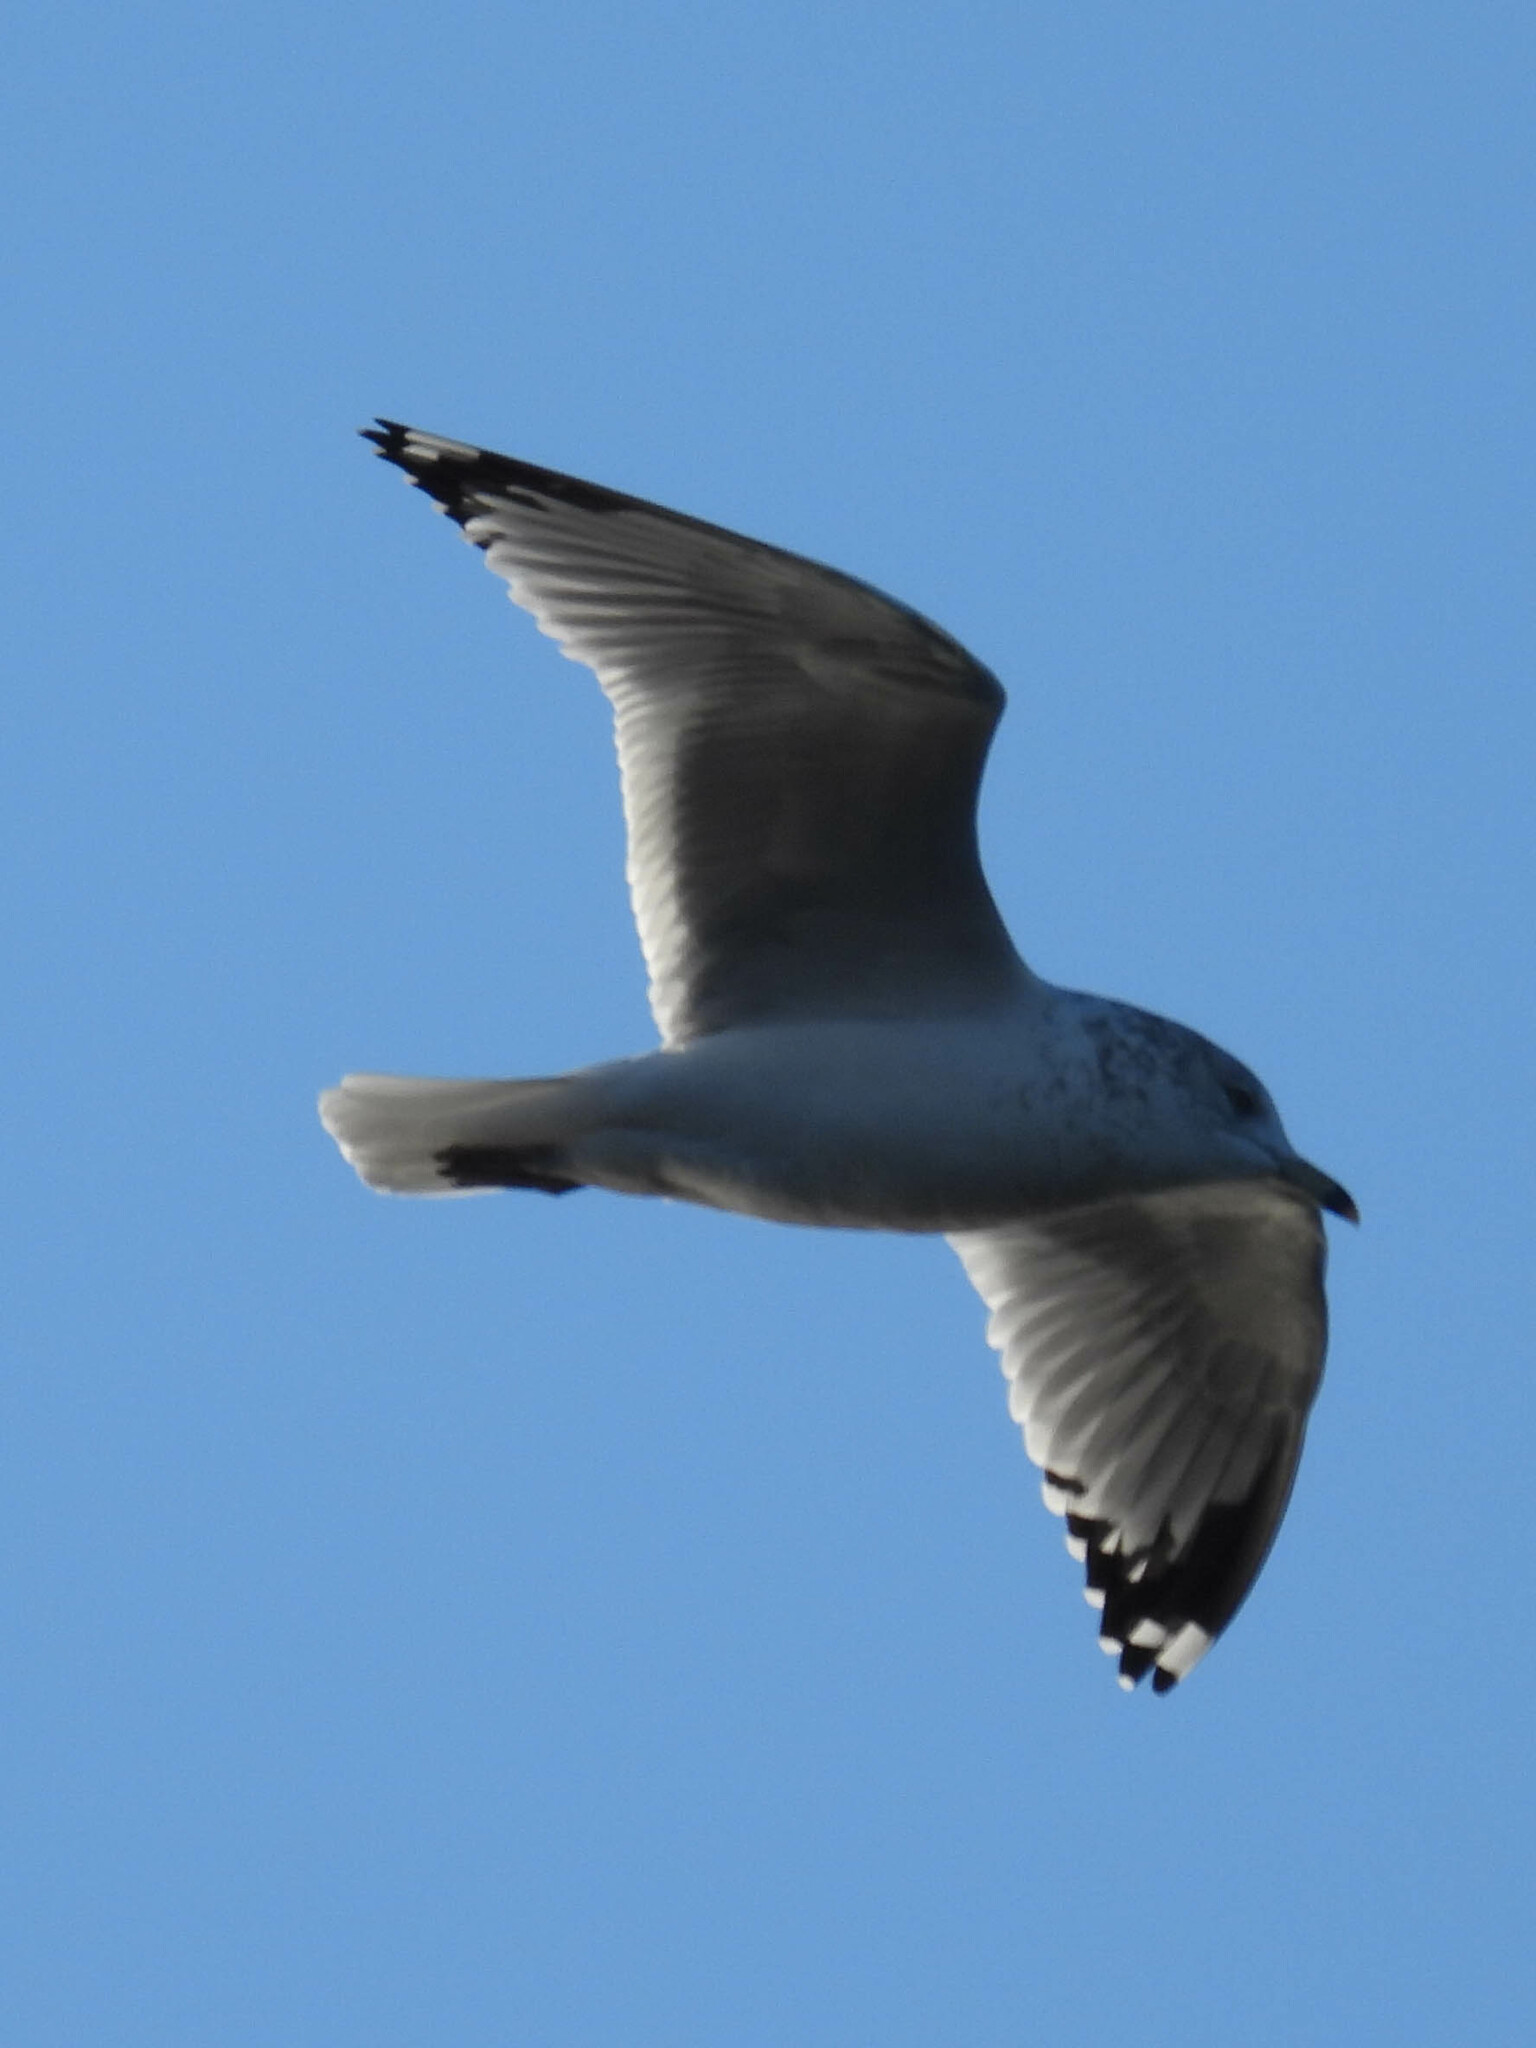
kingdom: Animalia
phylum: Chordata
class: Aves
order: Charadriiformes
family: Laridae
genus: Larus
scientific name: Larus delawarensis
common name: Ring-billed gull
